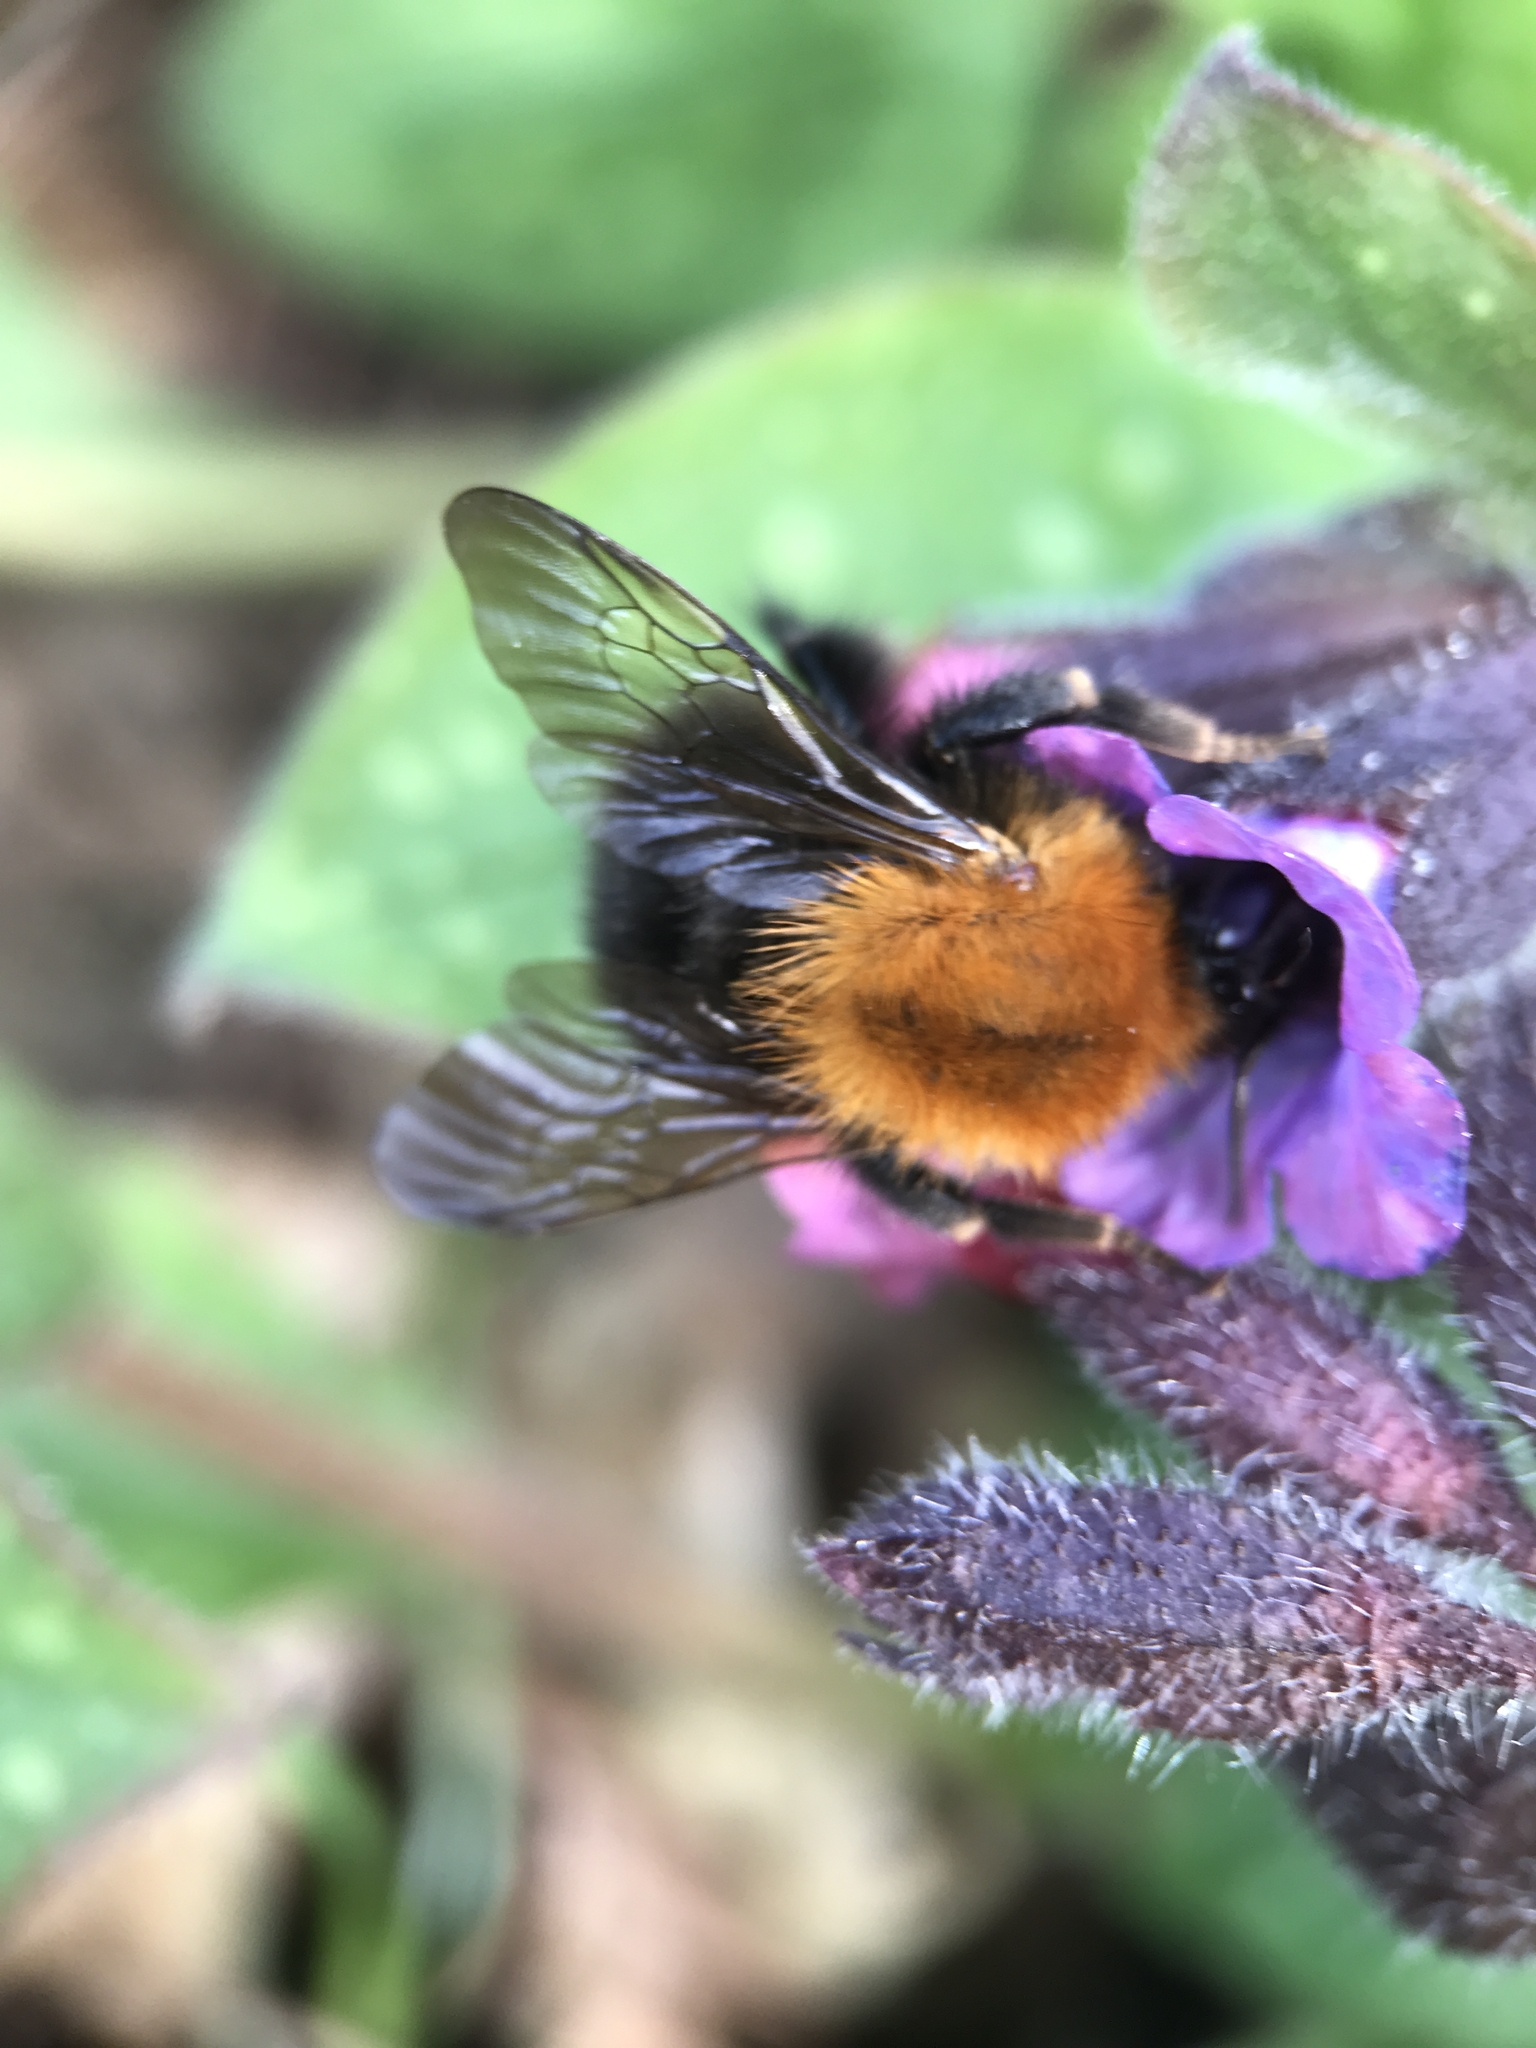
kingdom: Animalia
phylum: Arthropoda
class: Insecta
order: Hymenoptera
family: Apidae
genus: Bombus
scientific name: Bombus pascuorum
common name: Common carder bee
